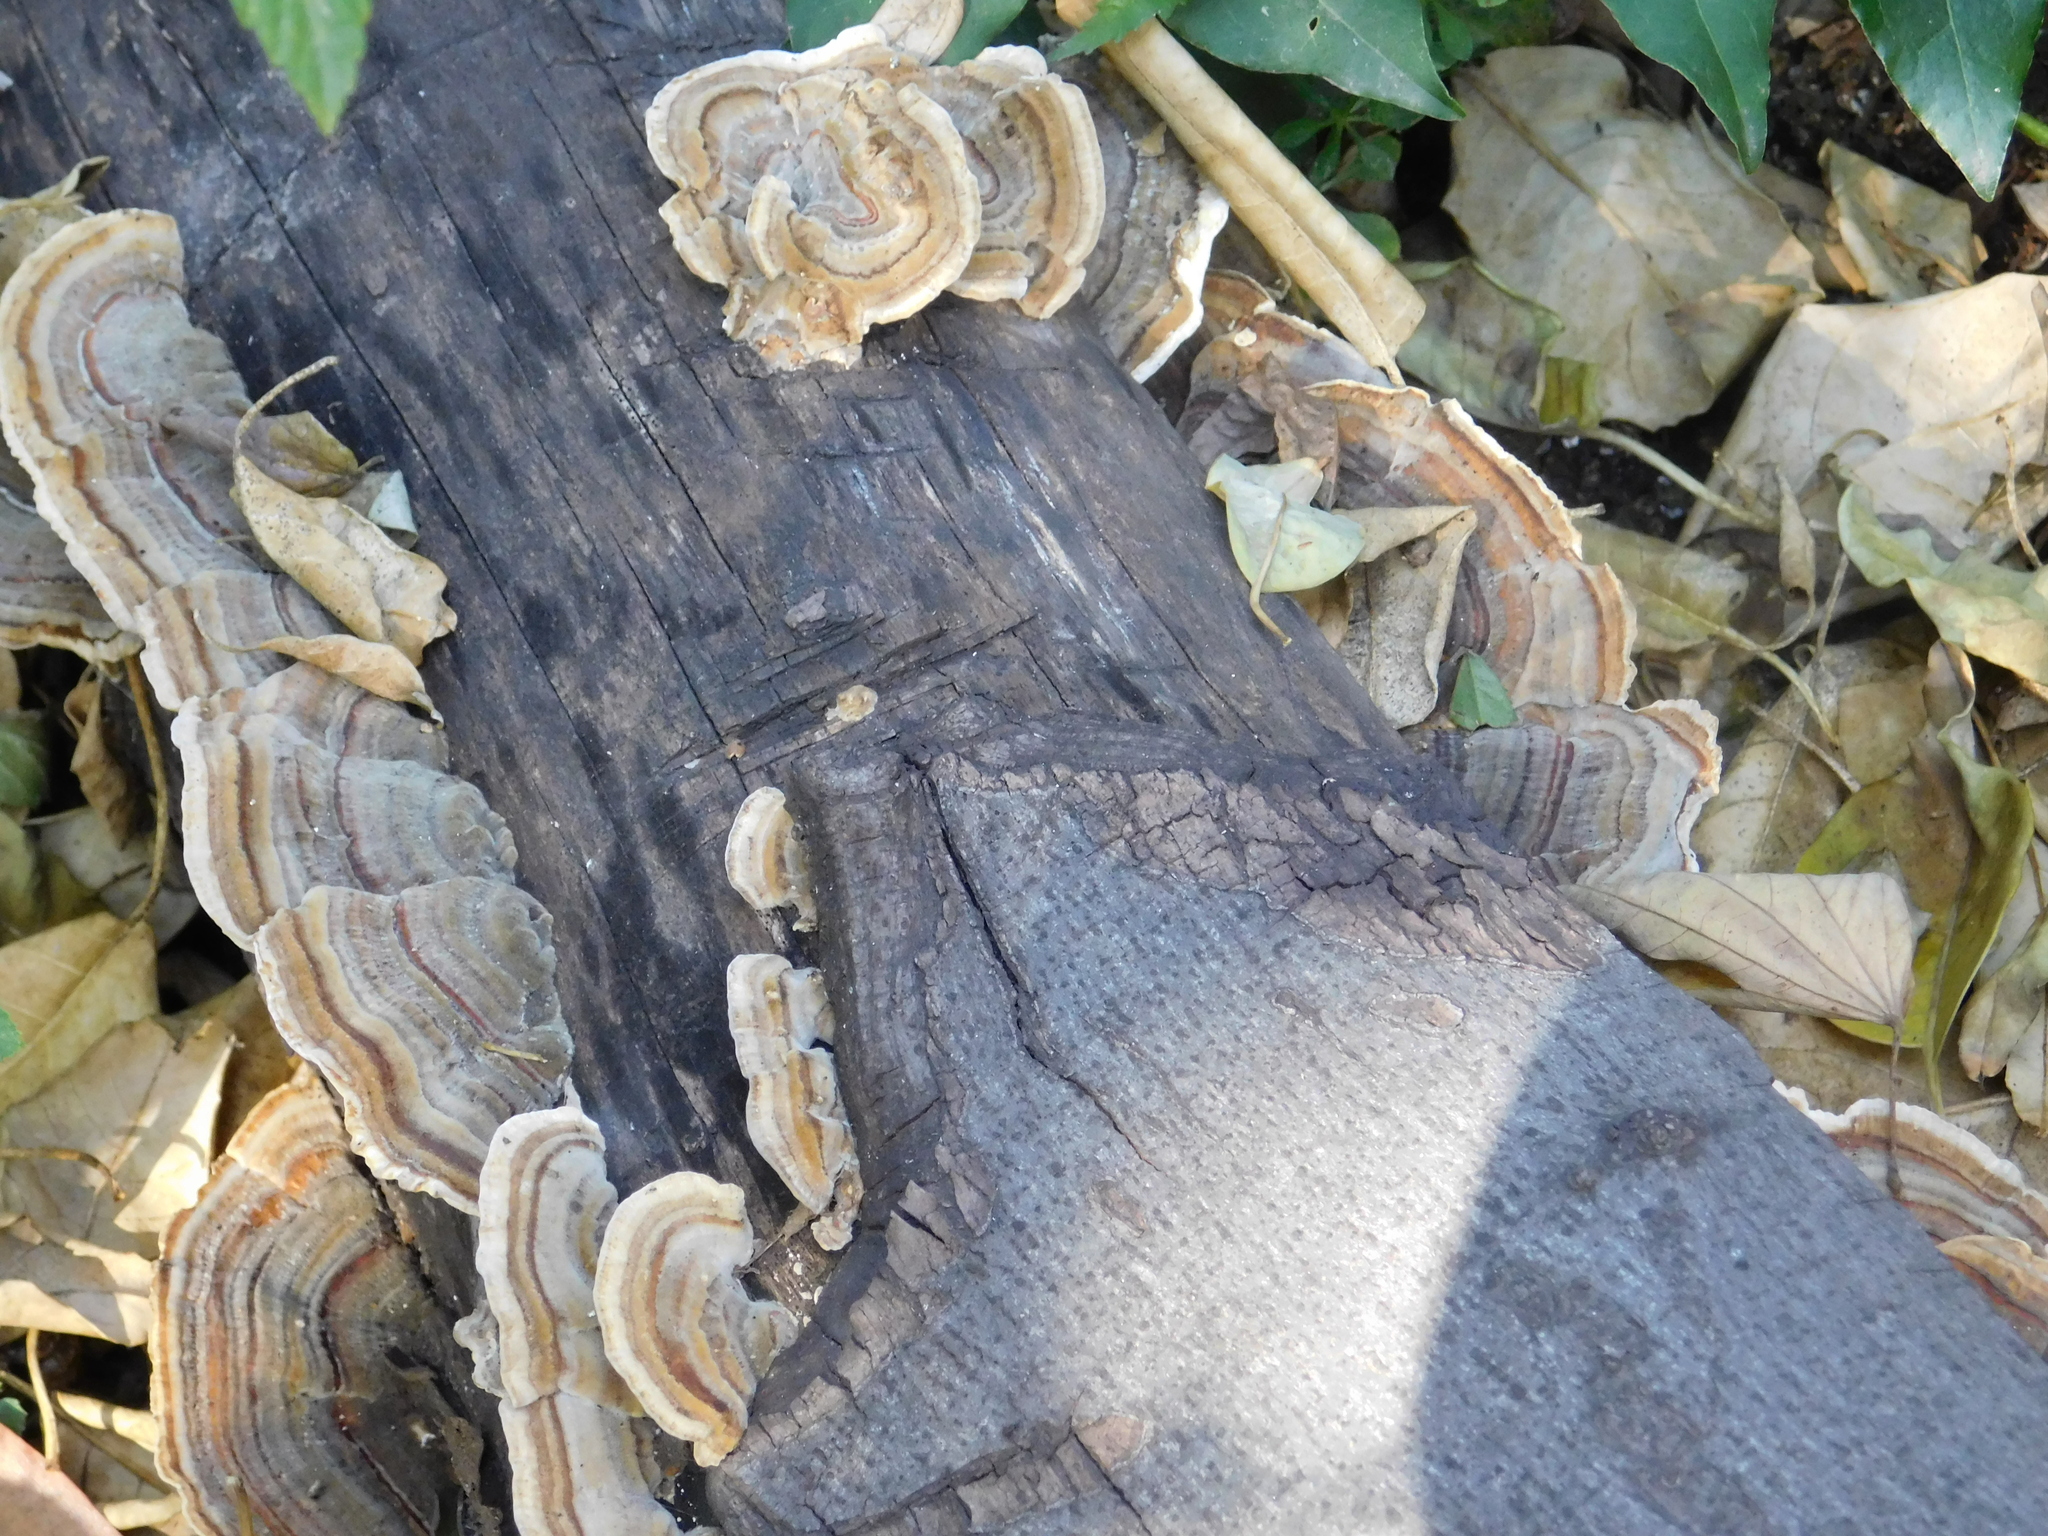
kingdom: Fungi
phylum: Basidiomycota
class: Agaricomycetes
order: Polyporales
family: Polyporaceae
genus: Trametes
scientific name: Trametes versicolor
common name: Turkeytail
